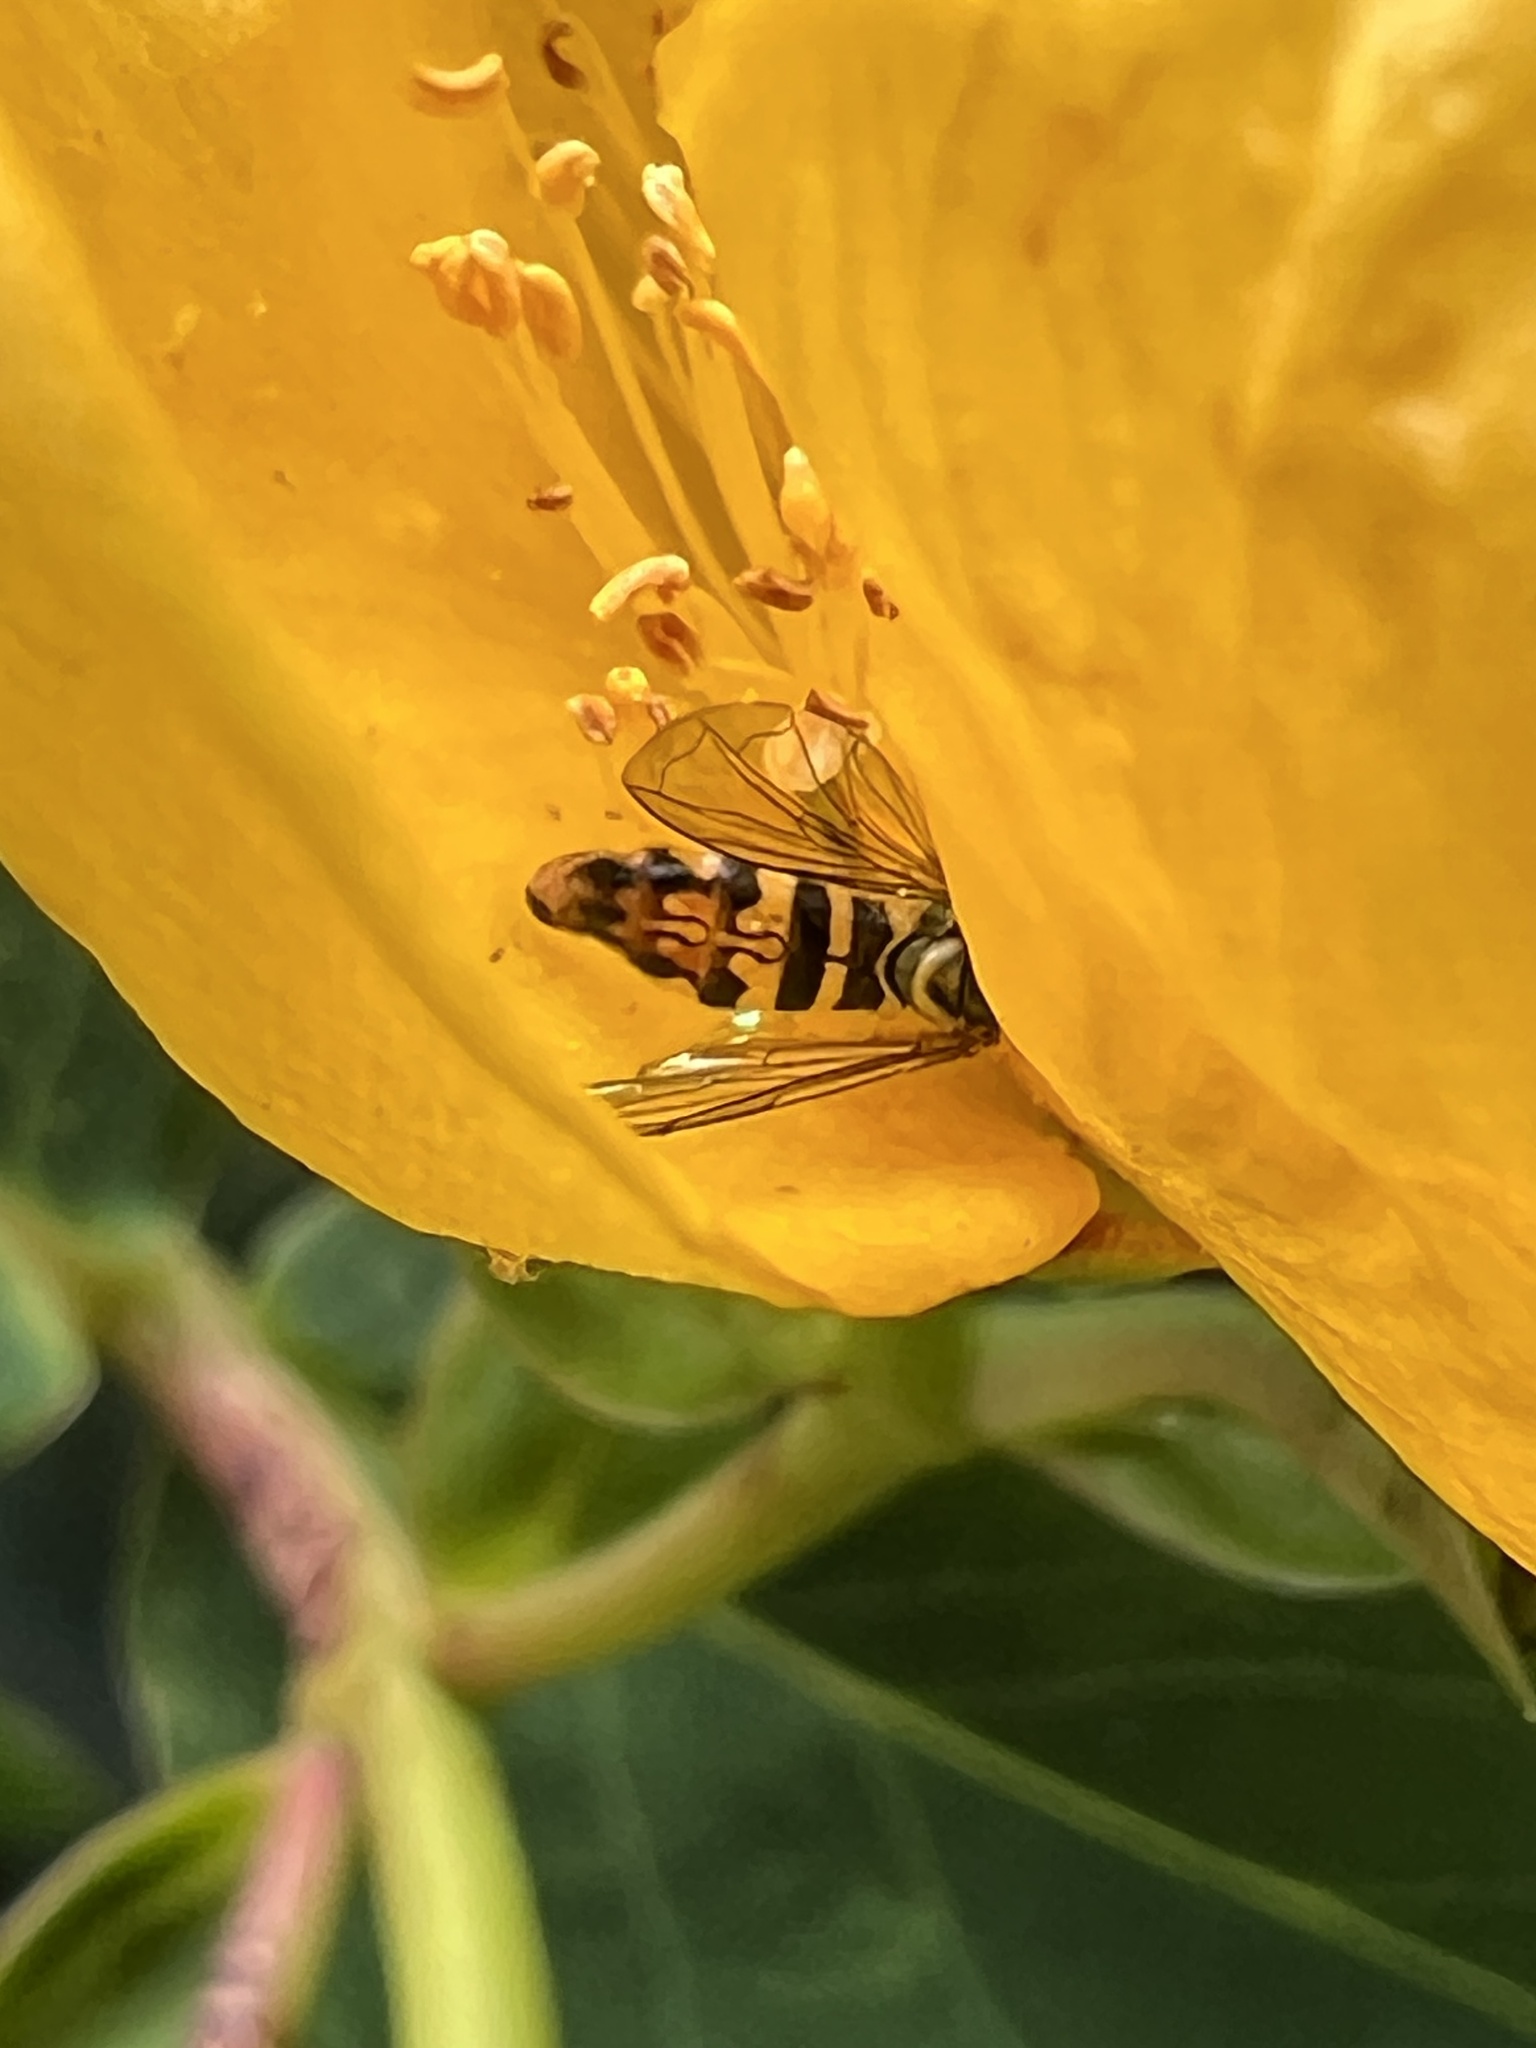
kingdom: Animalia
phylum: Arthropoda
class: Insecta
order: Diptera
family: Syrphidae
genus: Toxomerus
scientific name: Toxomerus geminatus
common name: Eastern calligrapher
